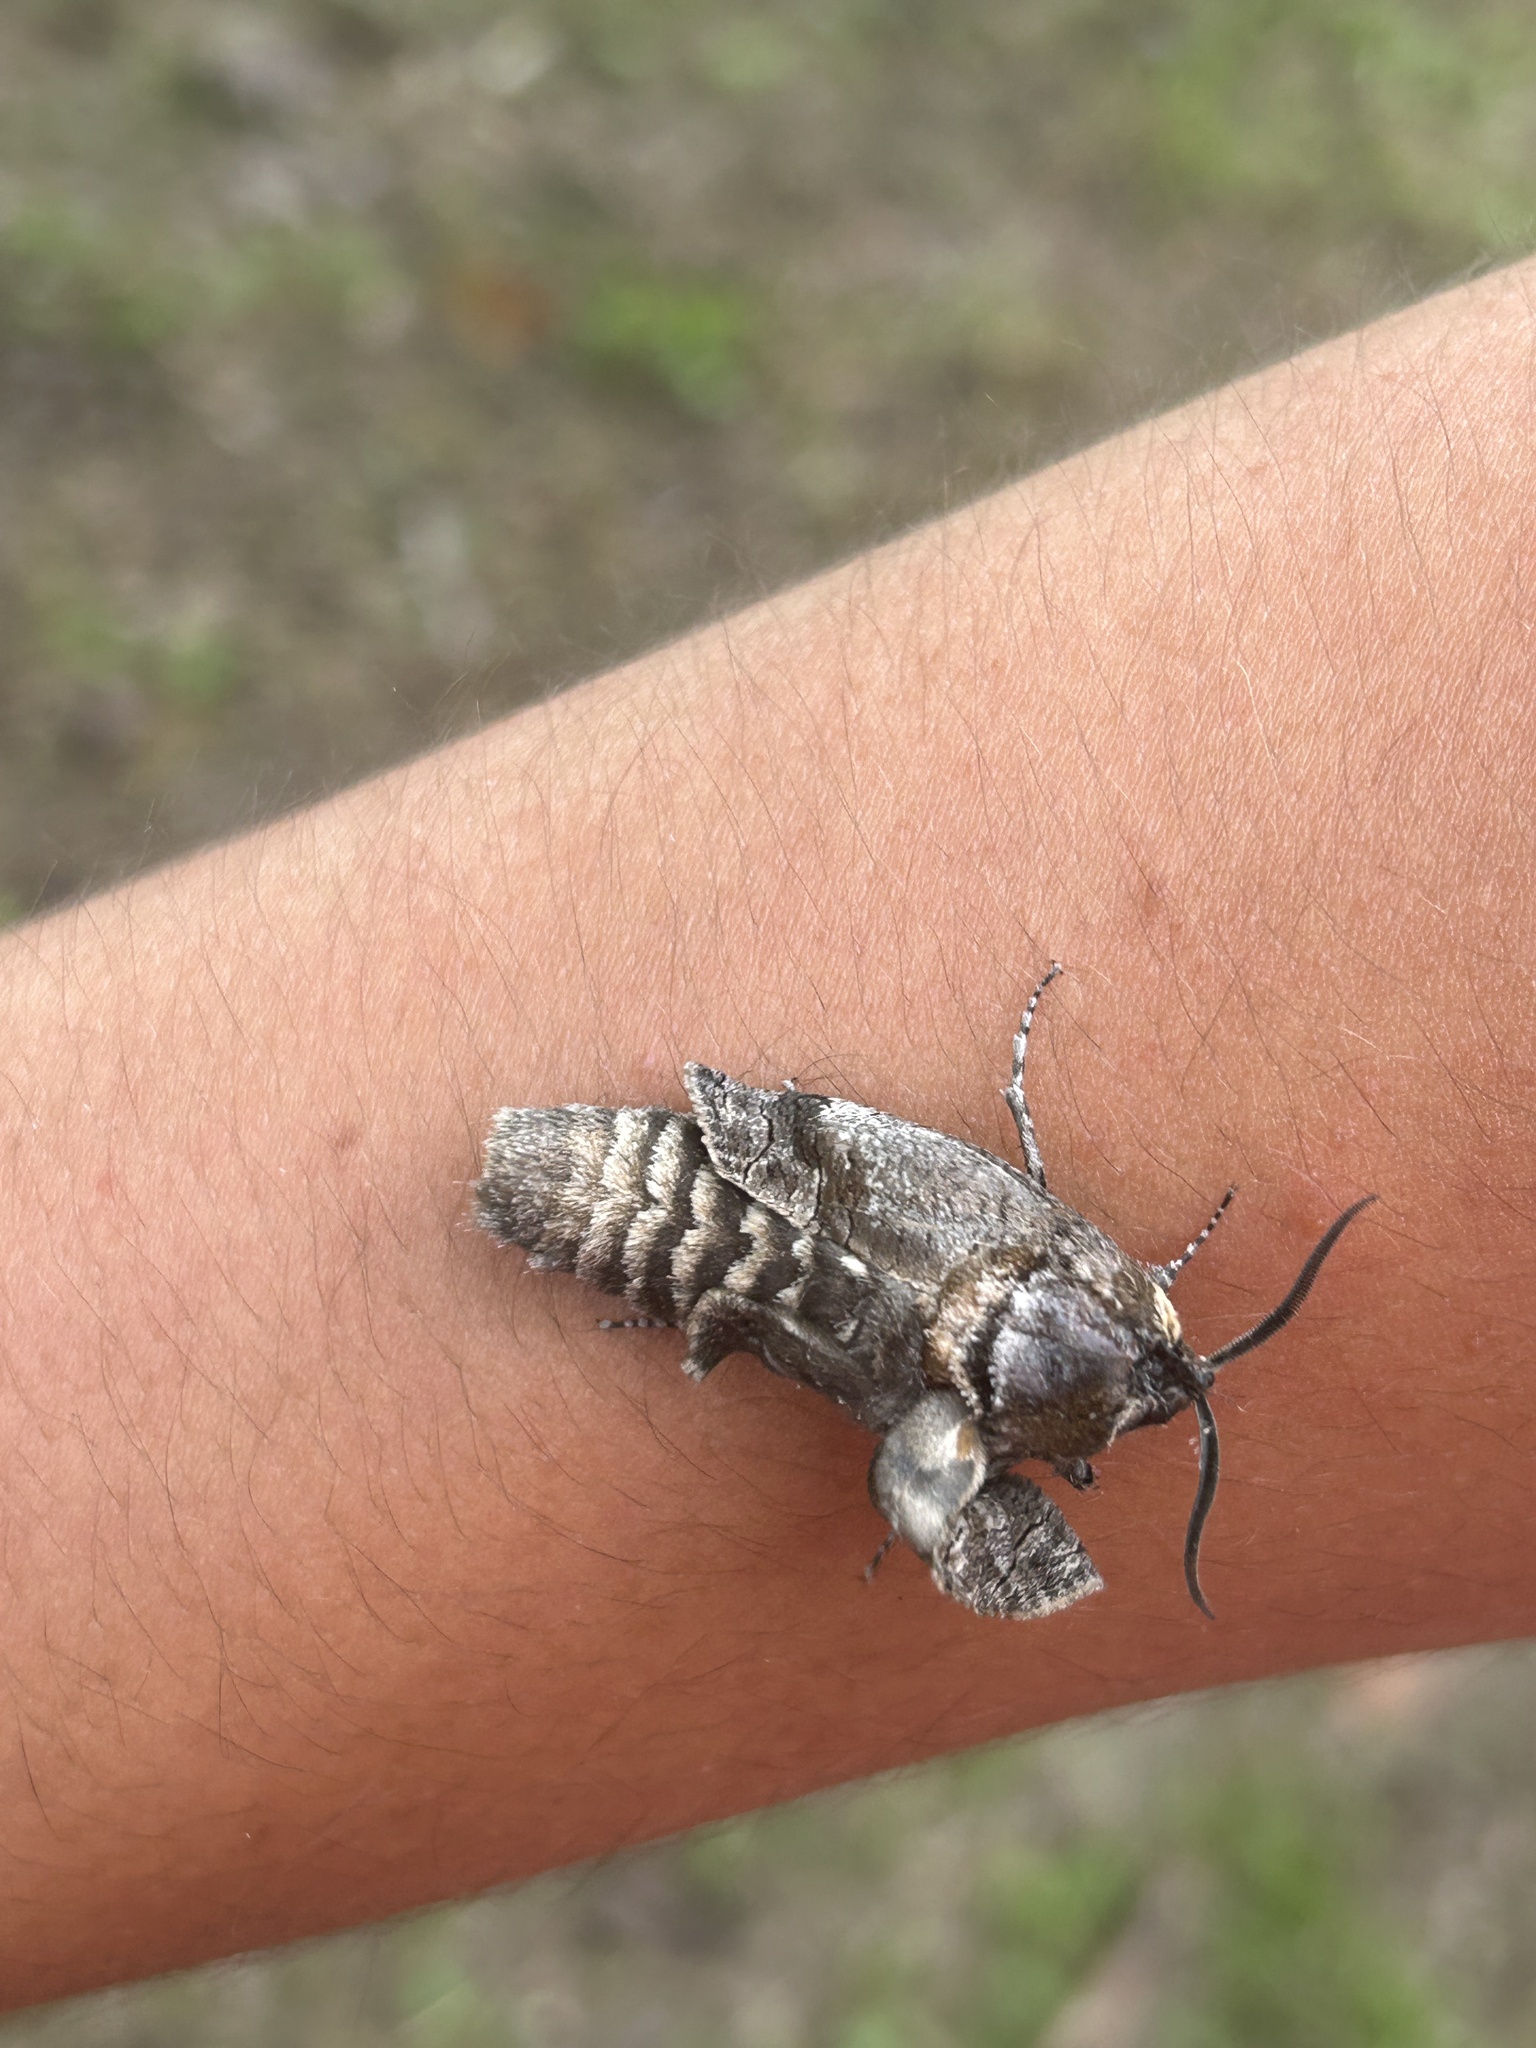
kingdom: Animalia
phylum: Arthropoda
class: Insecta
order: Lepidoptera
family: Cossidae
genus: Cossus
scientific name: Cossus cossus
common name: Goat moth
